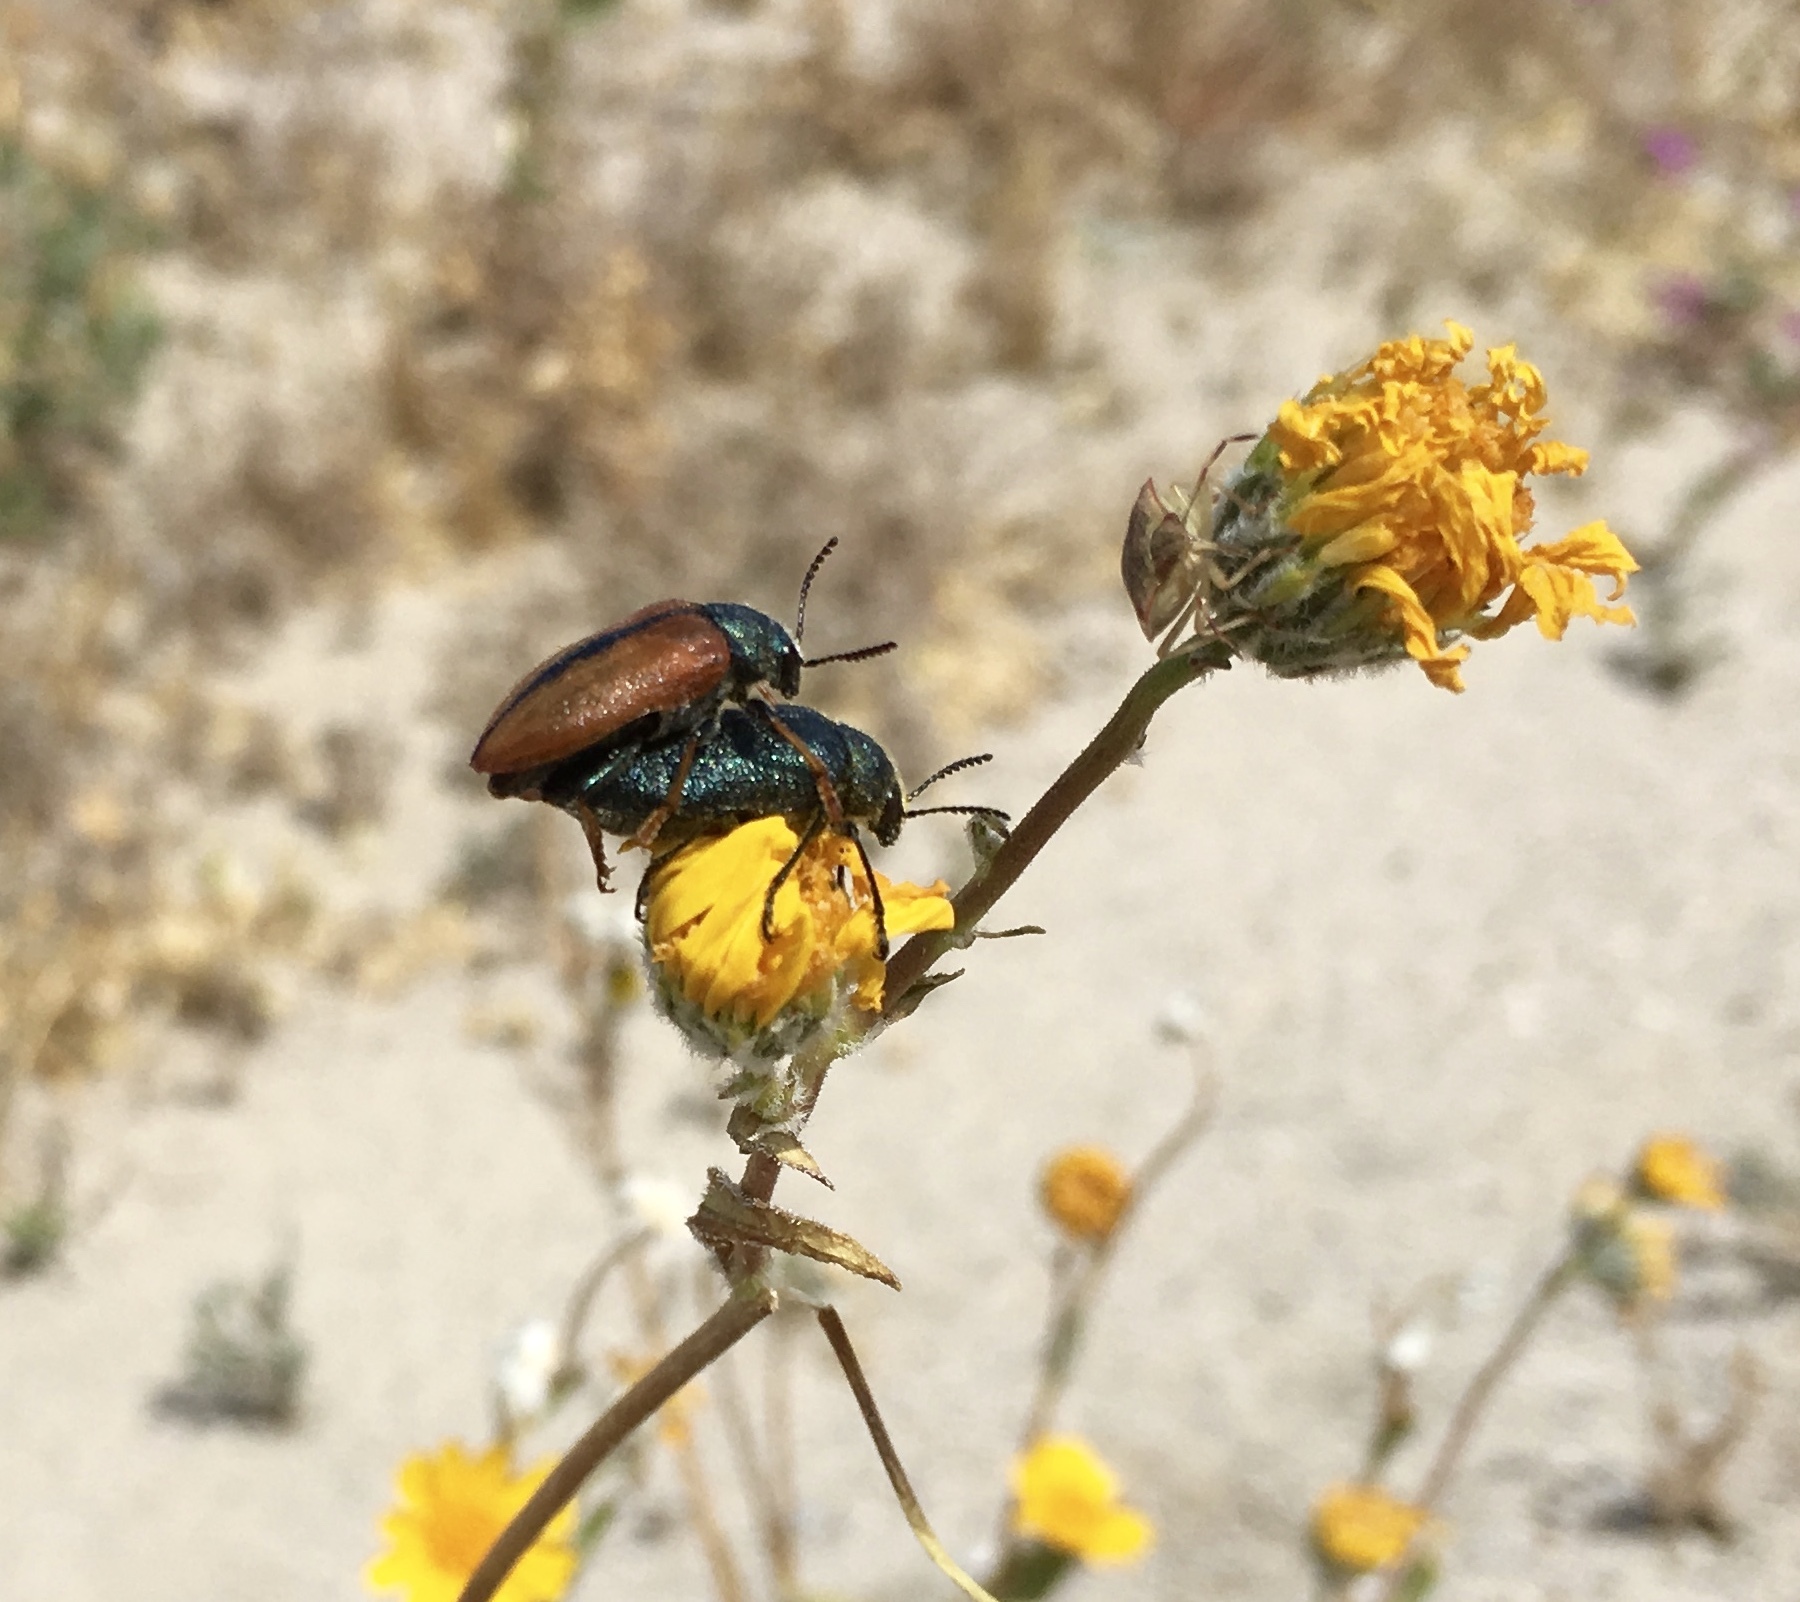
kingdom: Animalia
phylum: Arthropoda
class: Insecta
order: Coleoptera
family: Schizopodidae
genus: Schizopus
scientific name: Schizopus laetus
